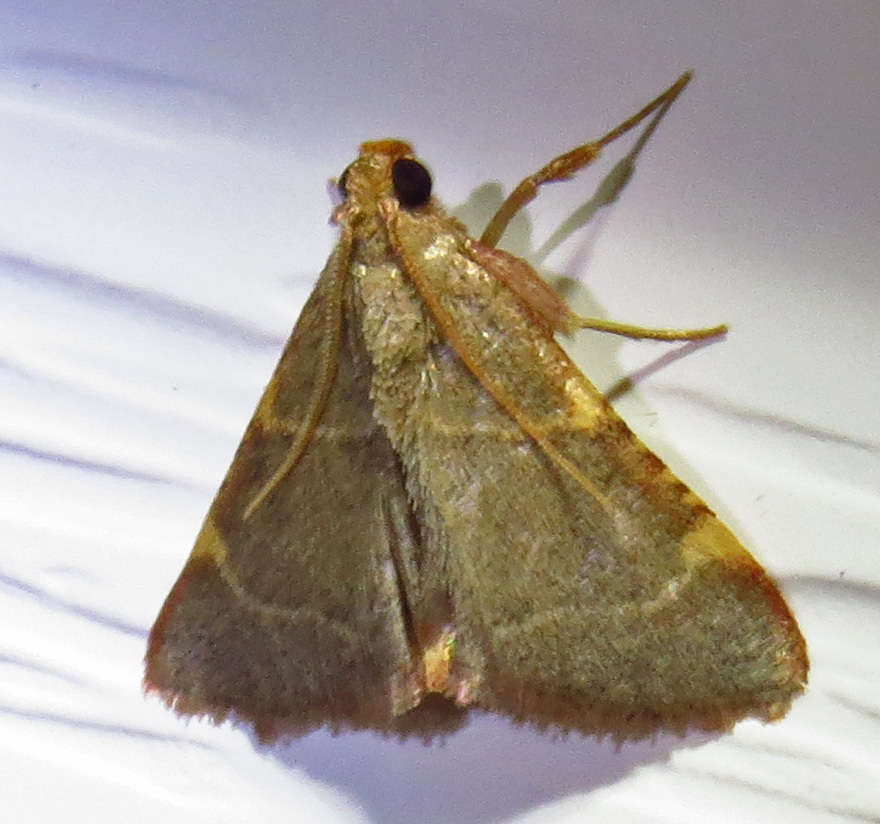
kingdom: Animalia
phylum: Arthropoda
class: Insecta
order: Lepidoptera
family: Pyralidae
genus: Hypsopygia
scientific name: Hypsopygia binodulalis
